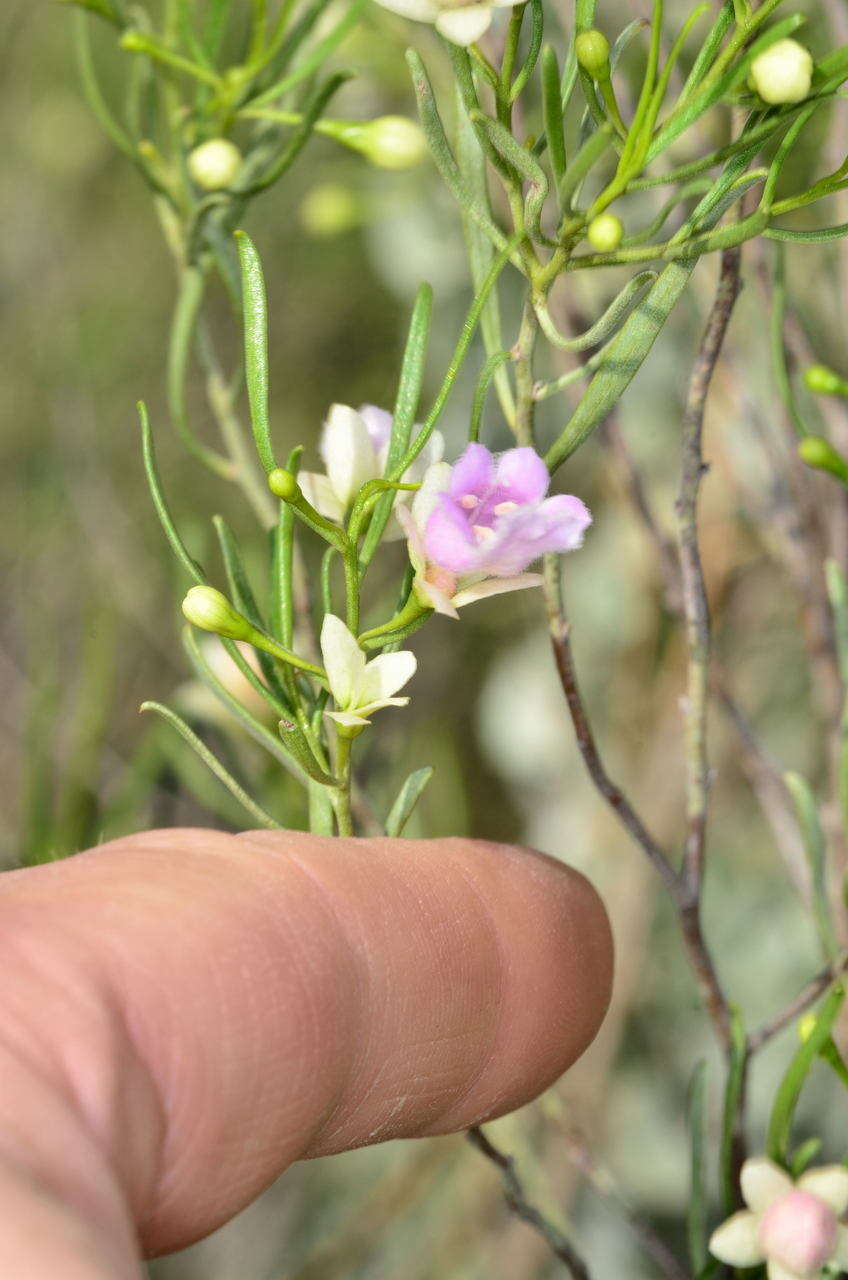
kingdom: Plantae
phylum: Tracheophyta
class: Magnoliopsida
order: Lamiales
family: Scrophulariaceae
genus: Eremophila
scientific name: Eremophila divaricata
